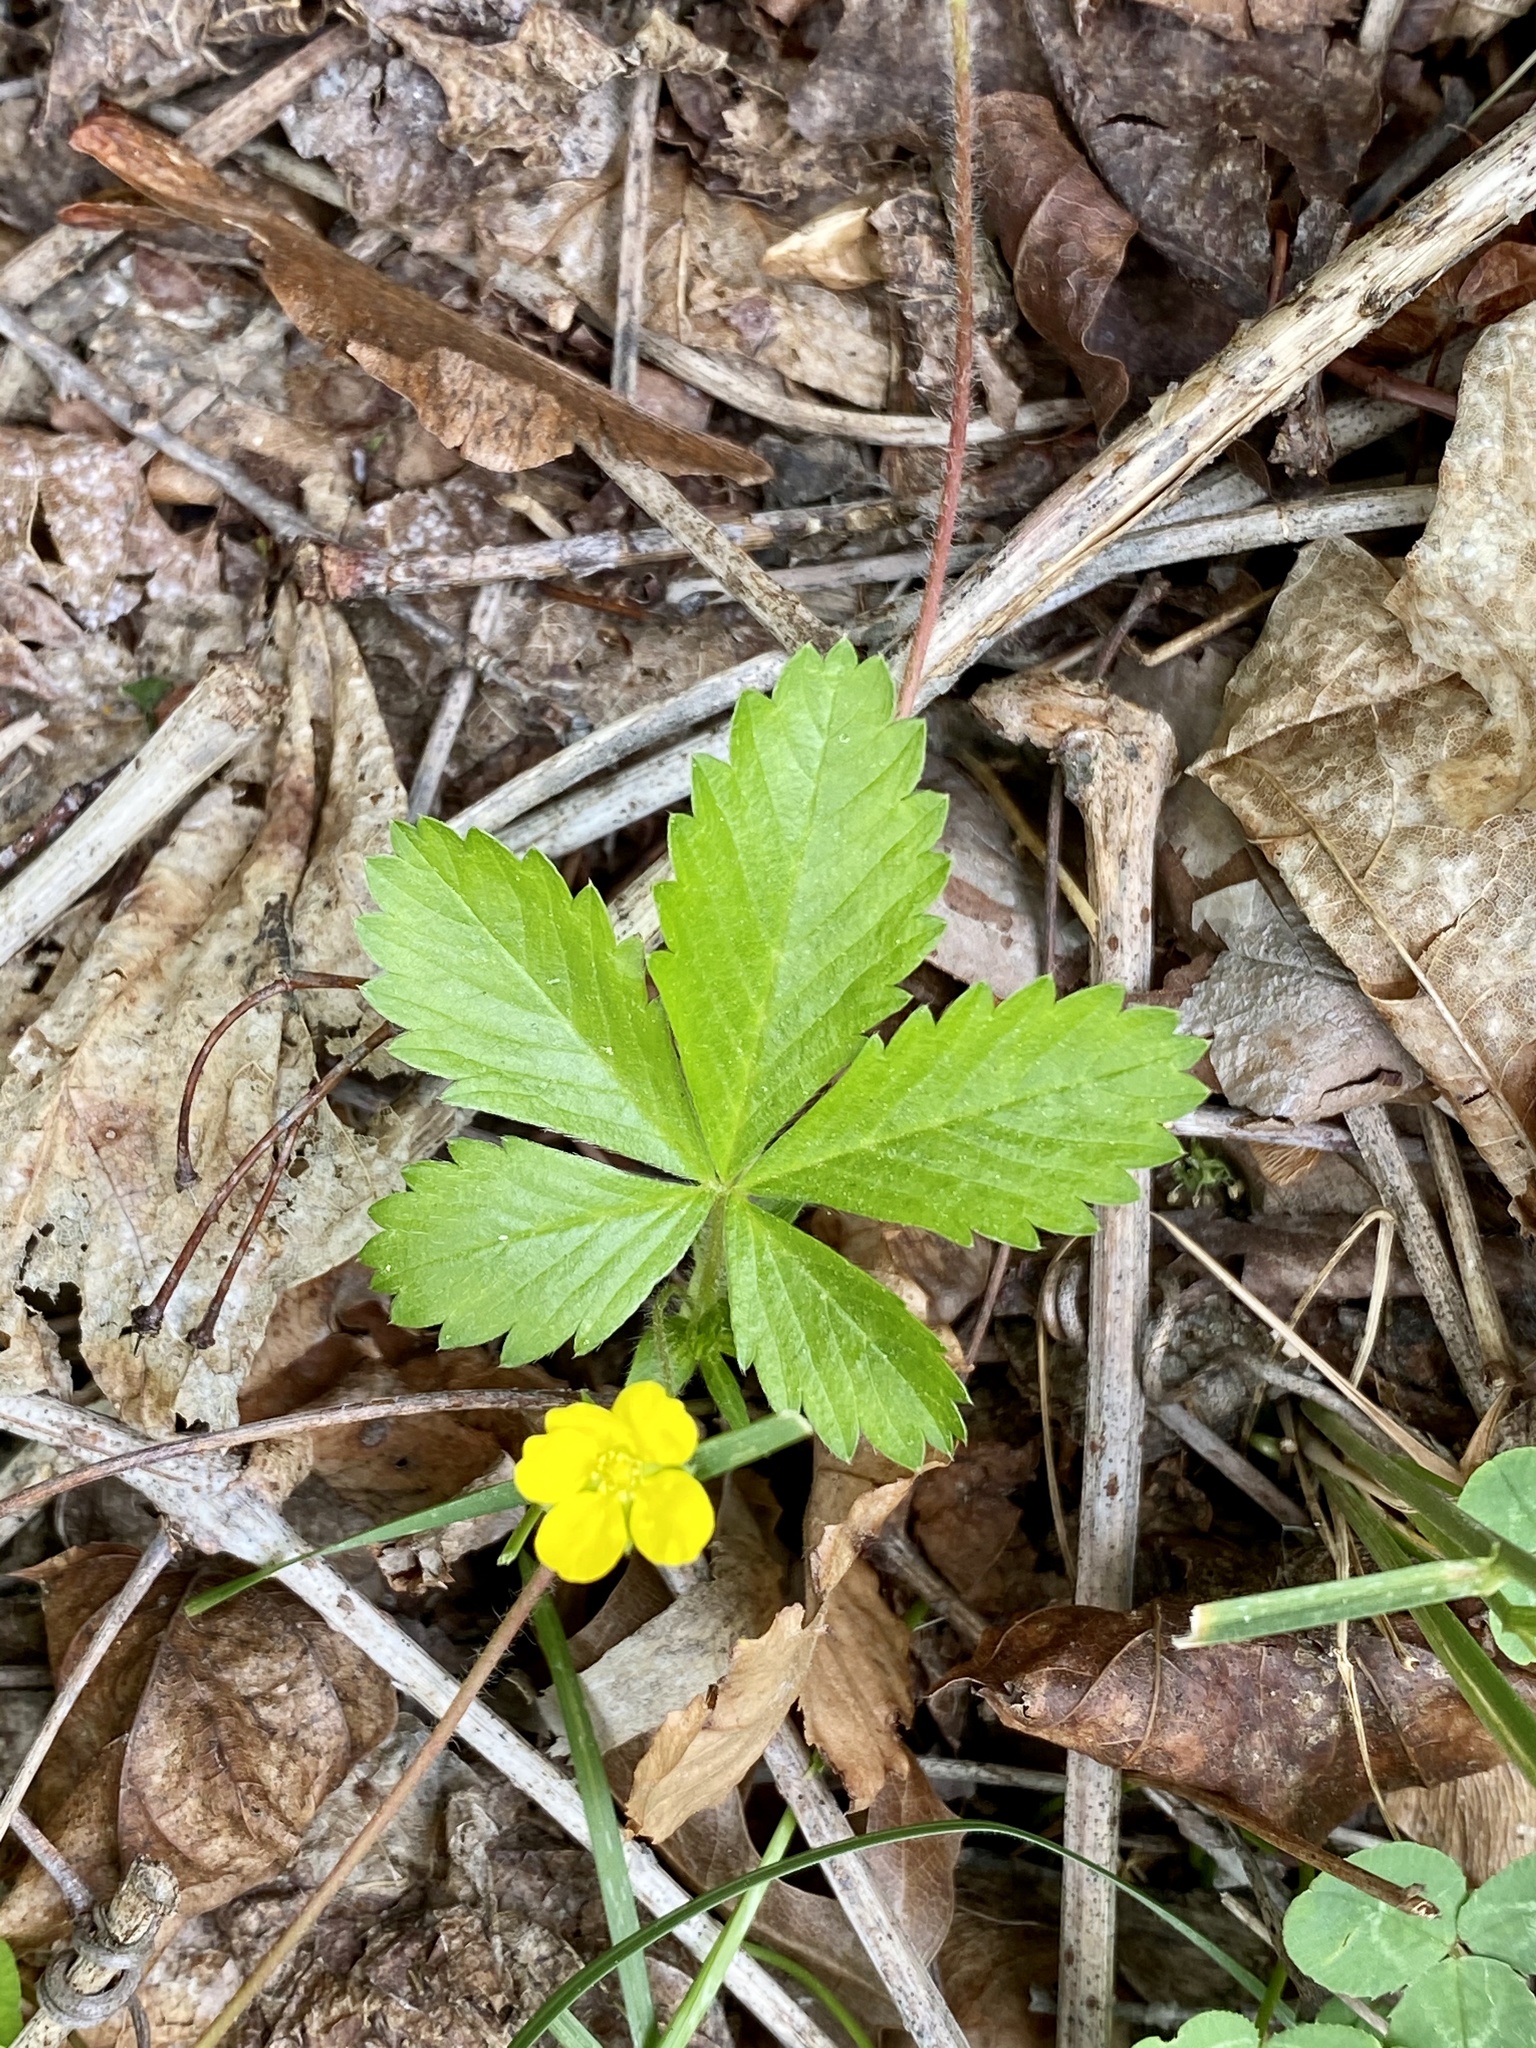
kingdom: Plantae
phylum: Tracheophyta
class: Magnoliopsida
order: Rosales
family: Rosaceae
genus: Potentilla
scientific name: Potentilla simplex
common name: Old field cinquefoil
